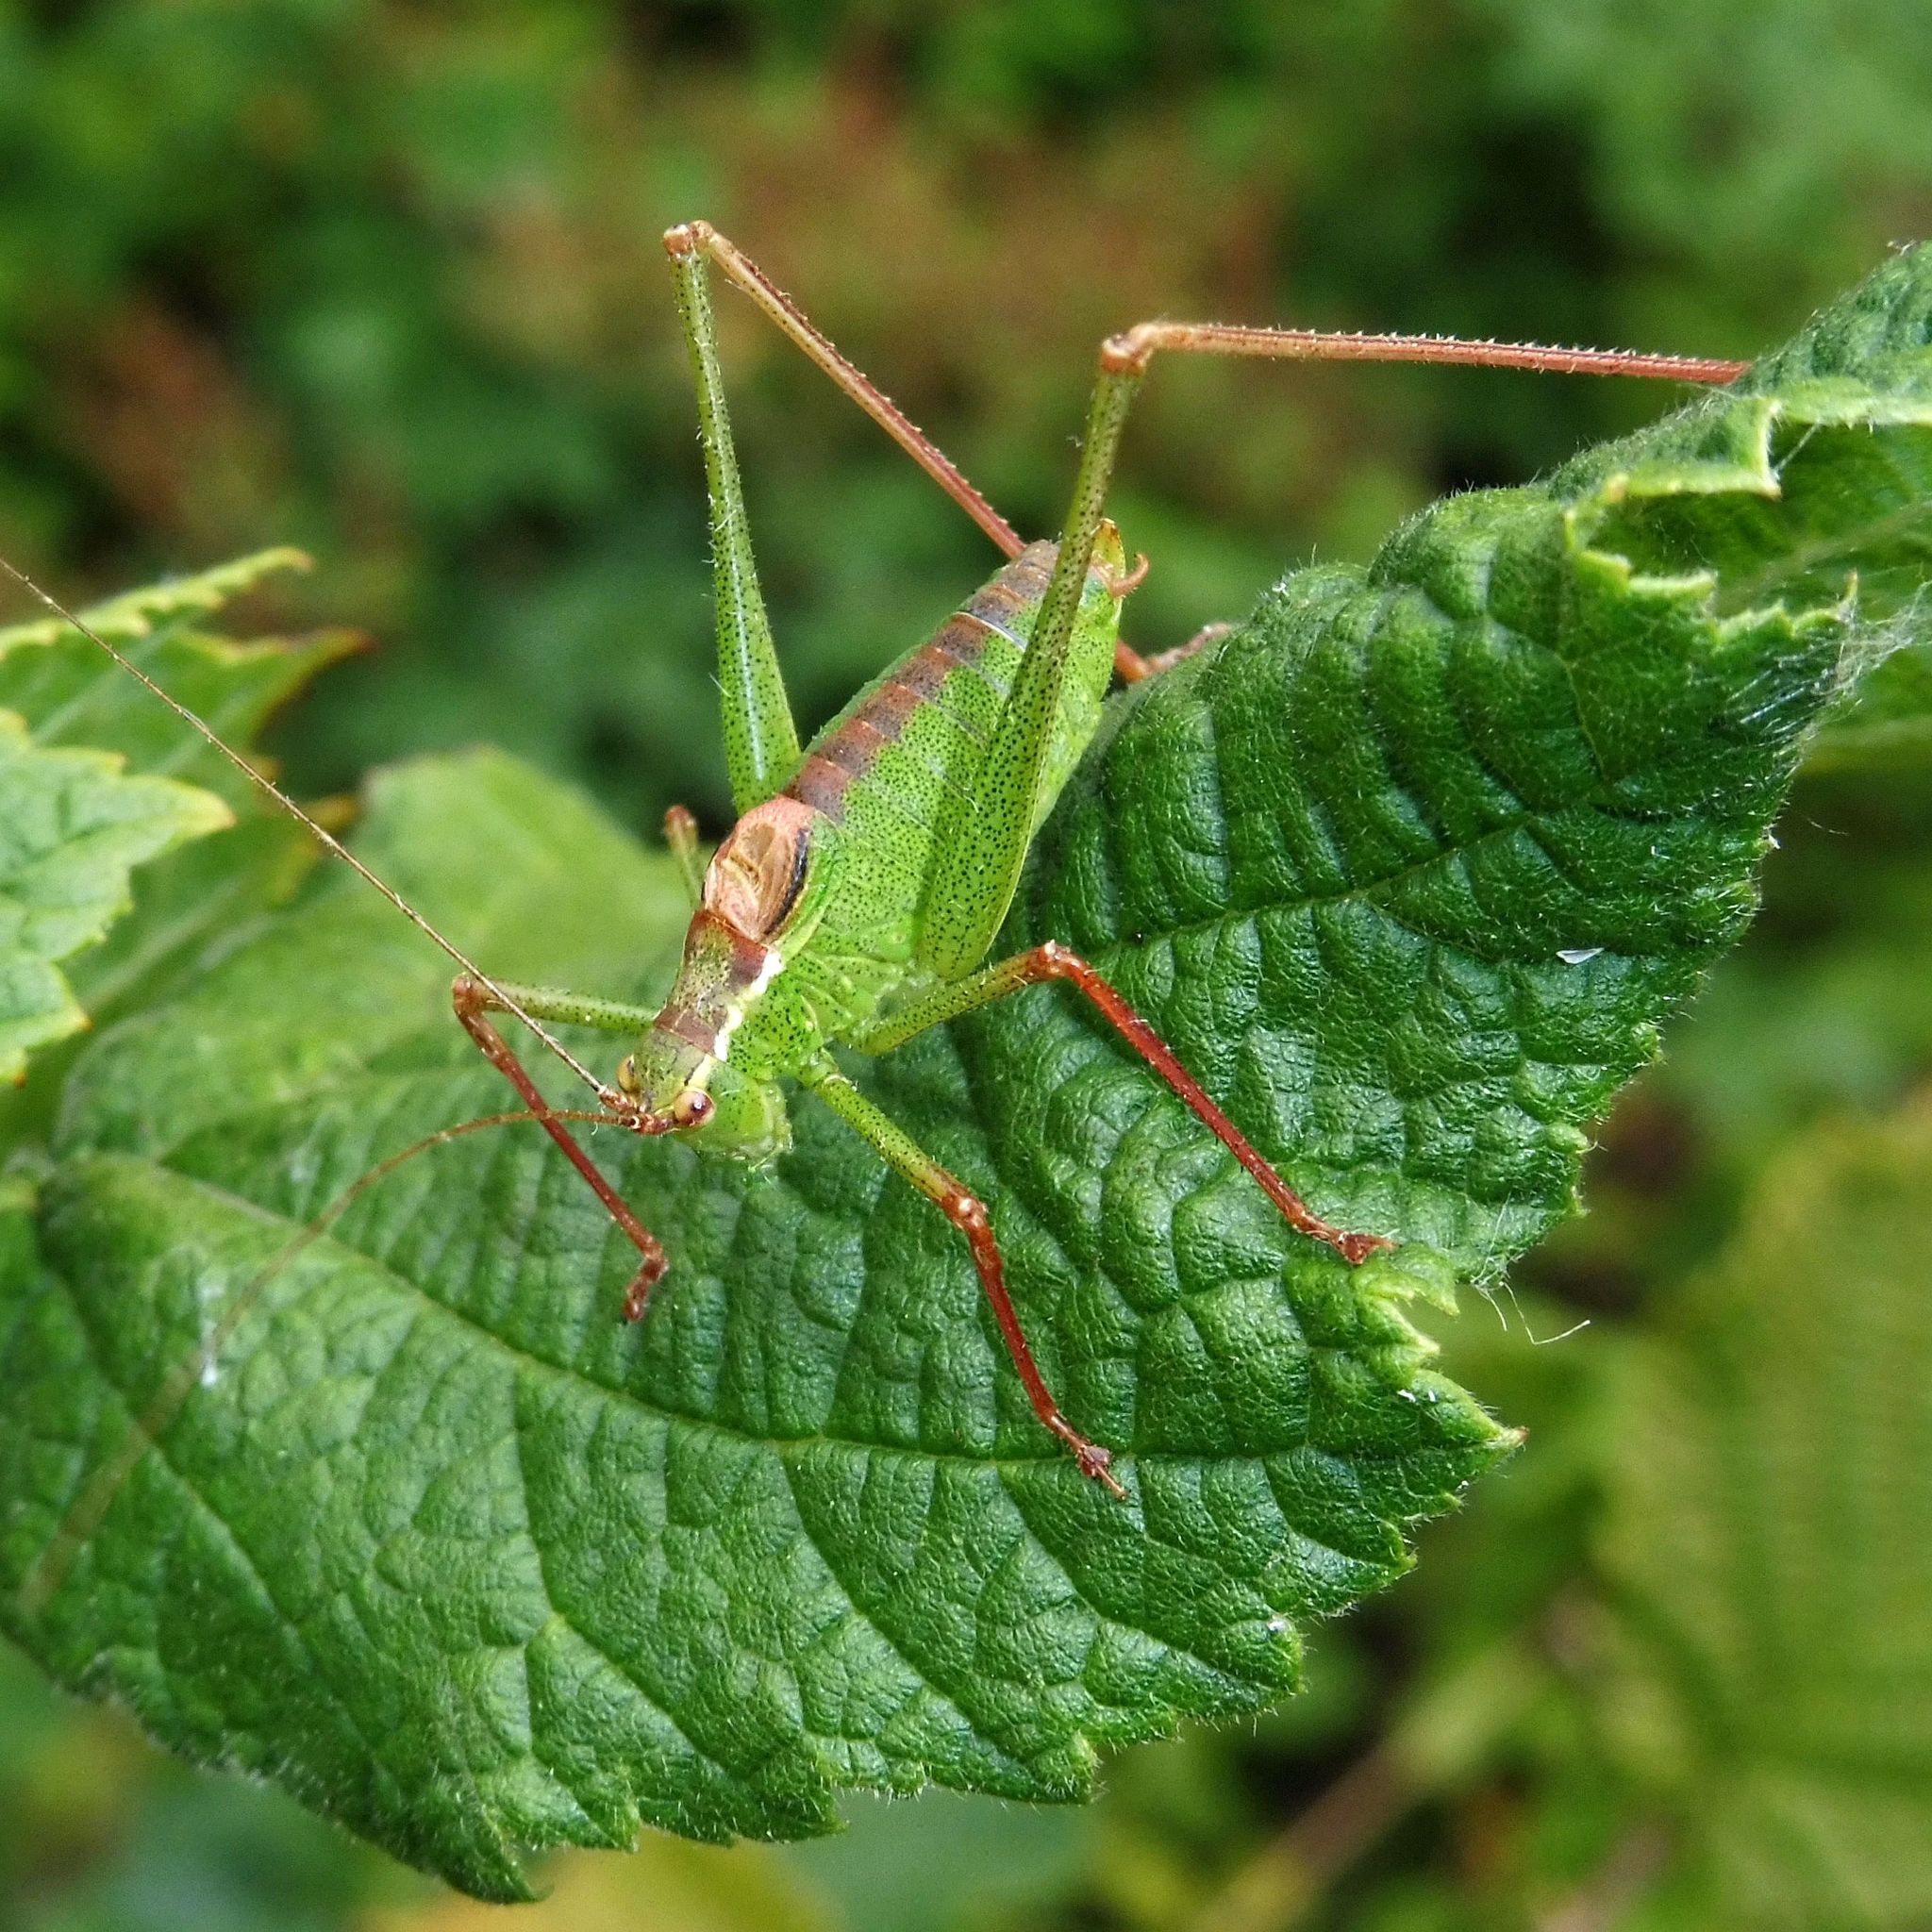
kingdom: Animalia
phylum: Arthropoda
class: Insecta
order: Orthoptera
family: Tettigoniidae
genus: Leptophyes
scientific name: Leptophyes punctatissima
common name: Speckled bush-cricket
